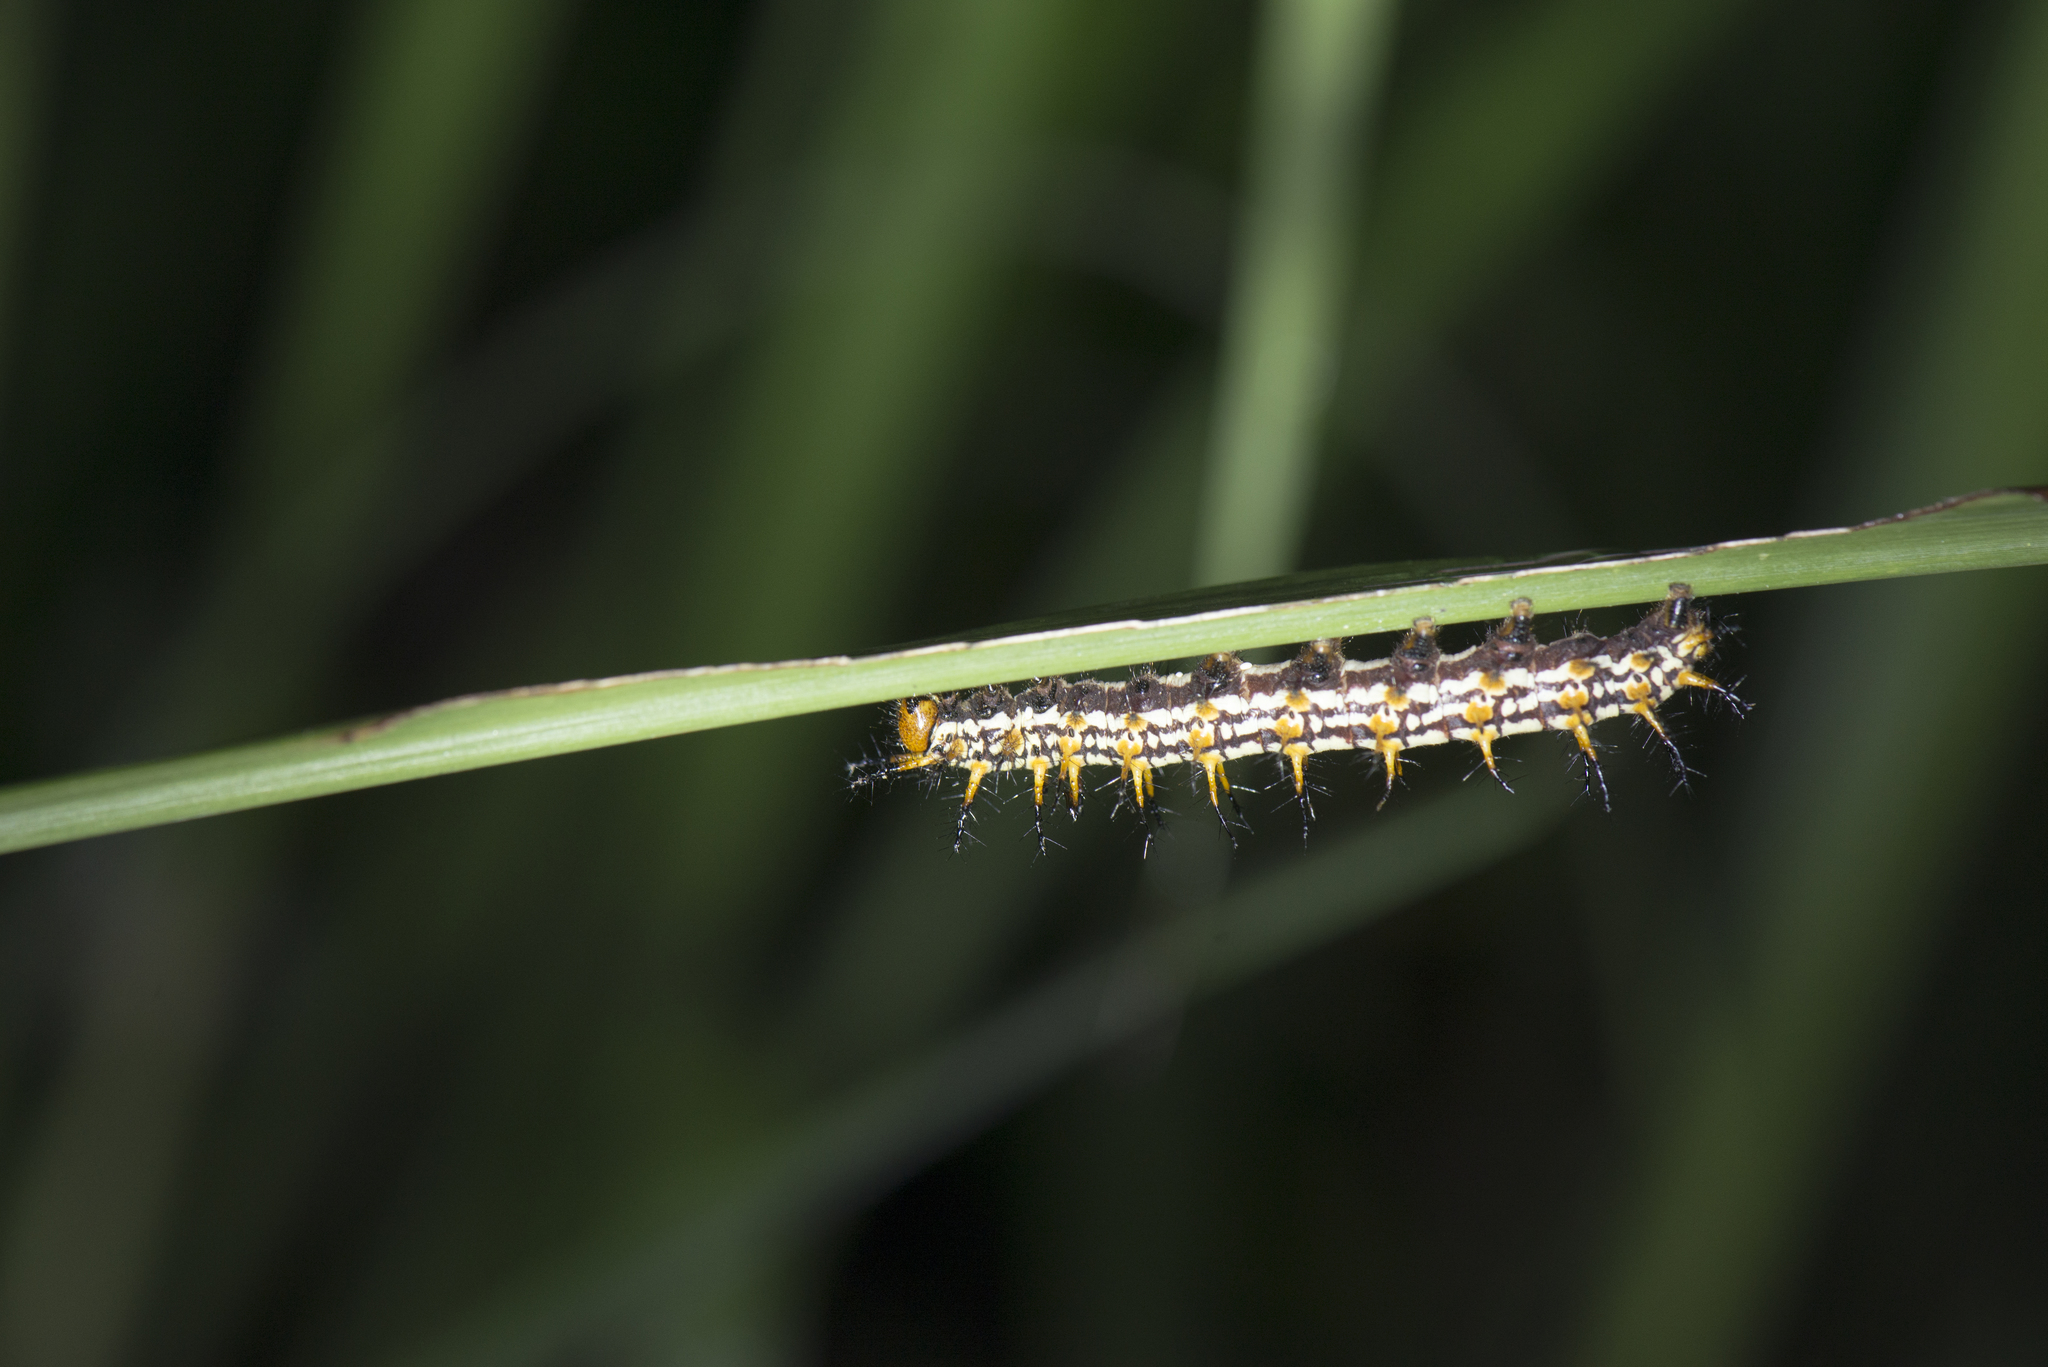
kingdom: Animalia
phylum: Arthropoda
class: Insecta
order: Lepidoptera
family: Nymphalidae
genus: Acraea
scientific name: Acraea Telchinia issoria
